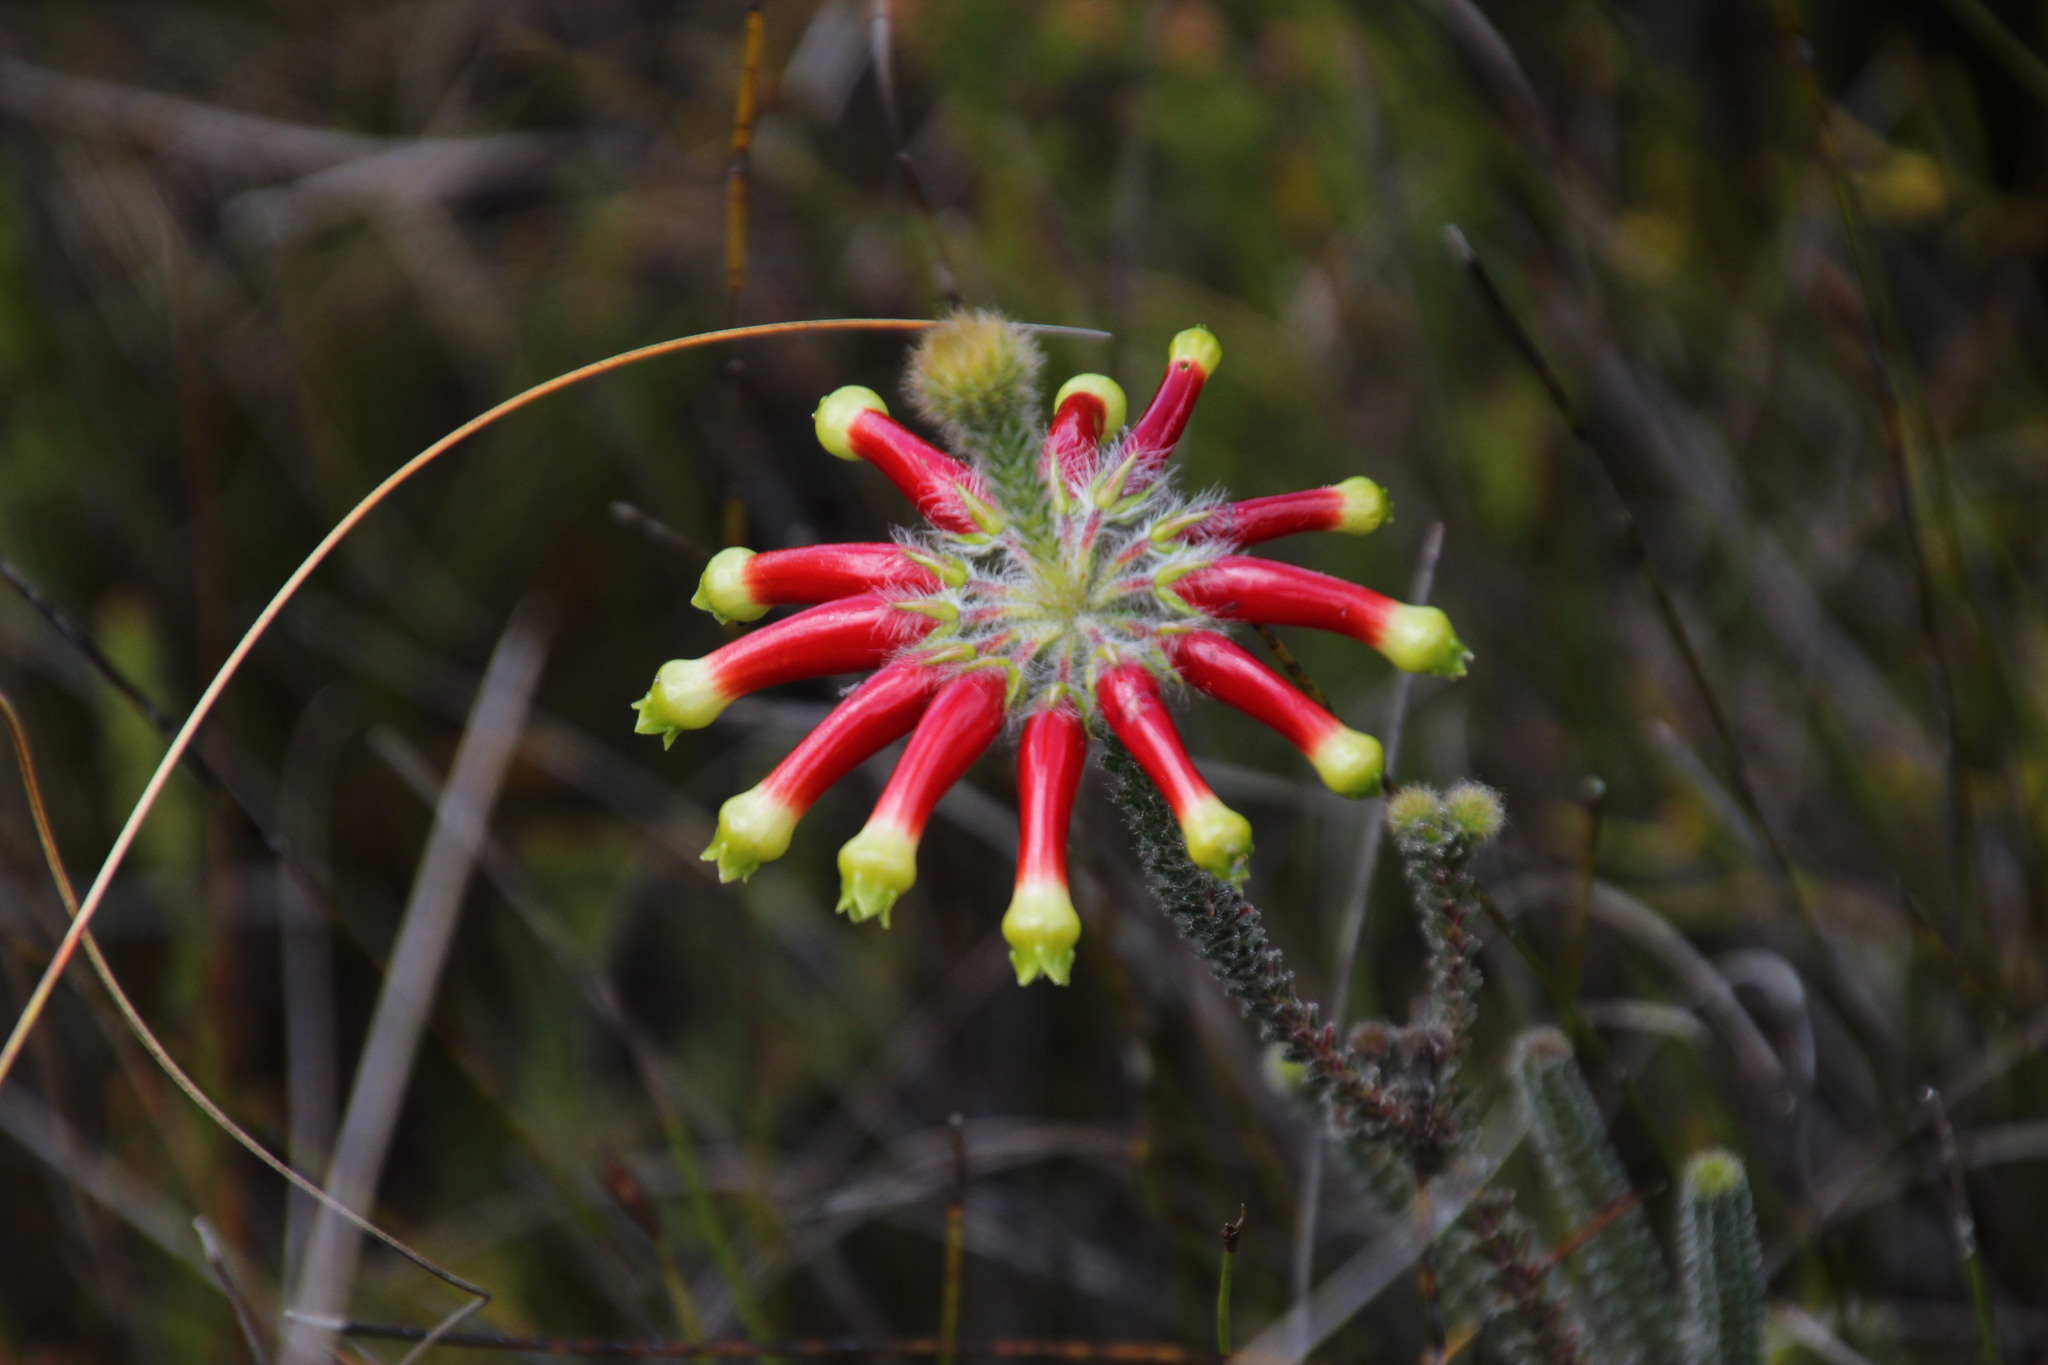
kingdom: Plantae
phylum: Tracheophyta
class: Magnoliopsida
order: Ericales
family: Ericaceae
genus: Erica
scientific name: Erica massonii
